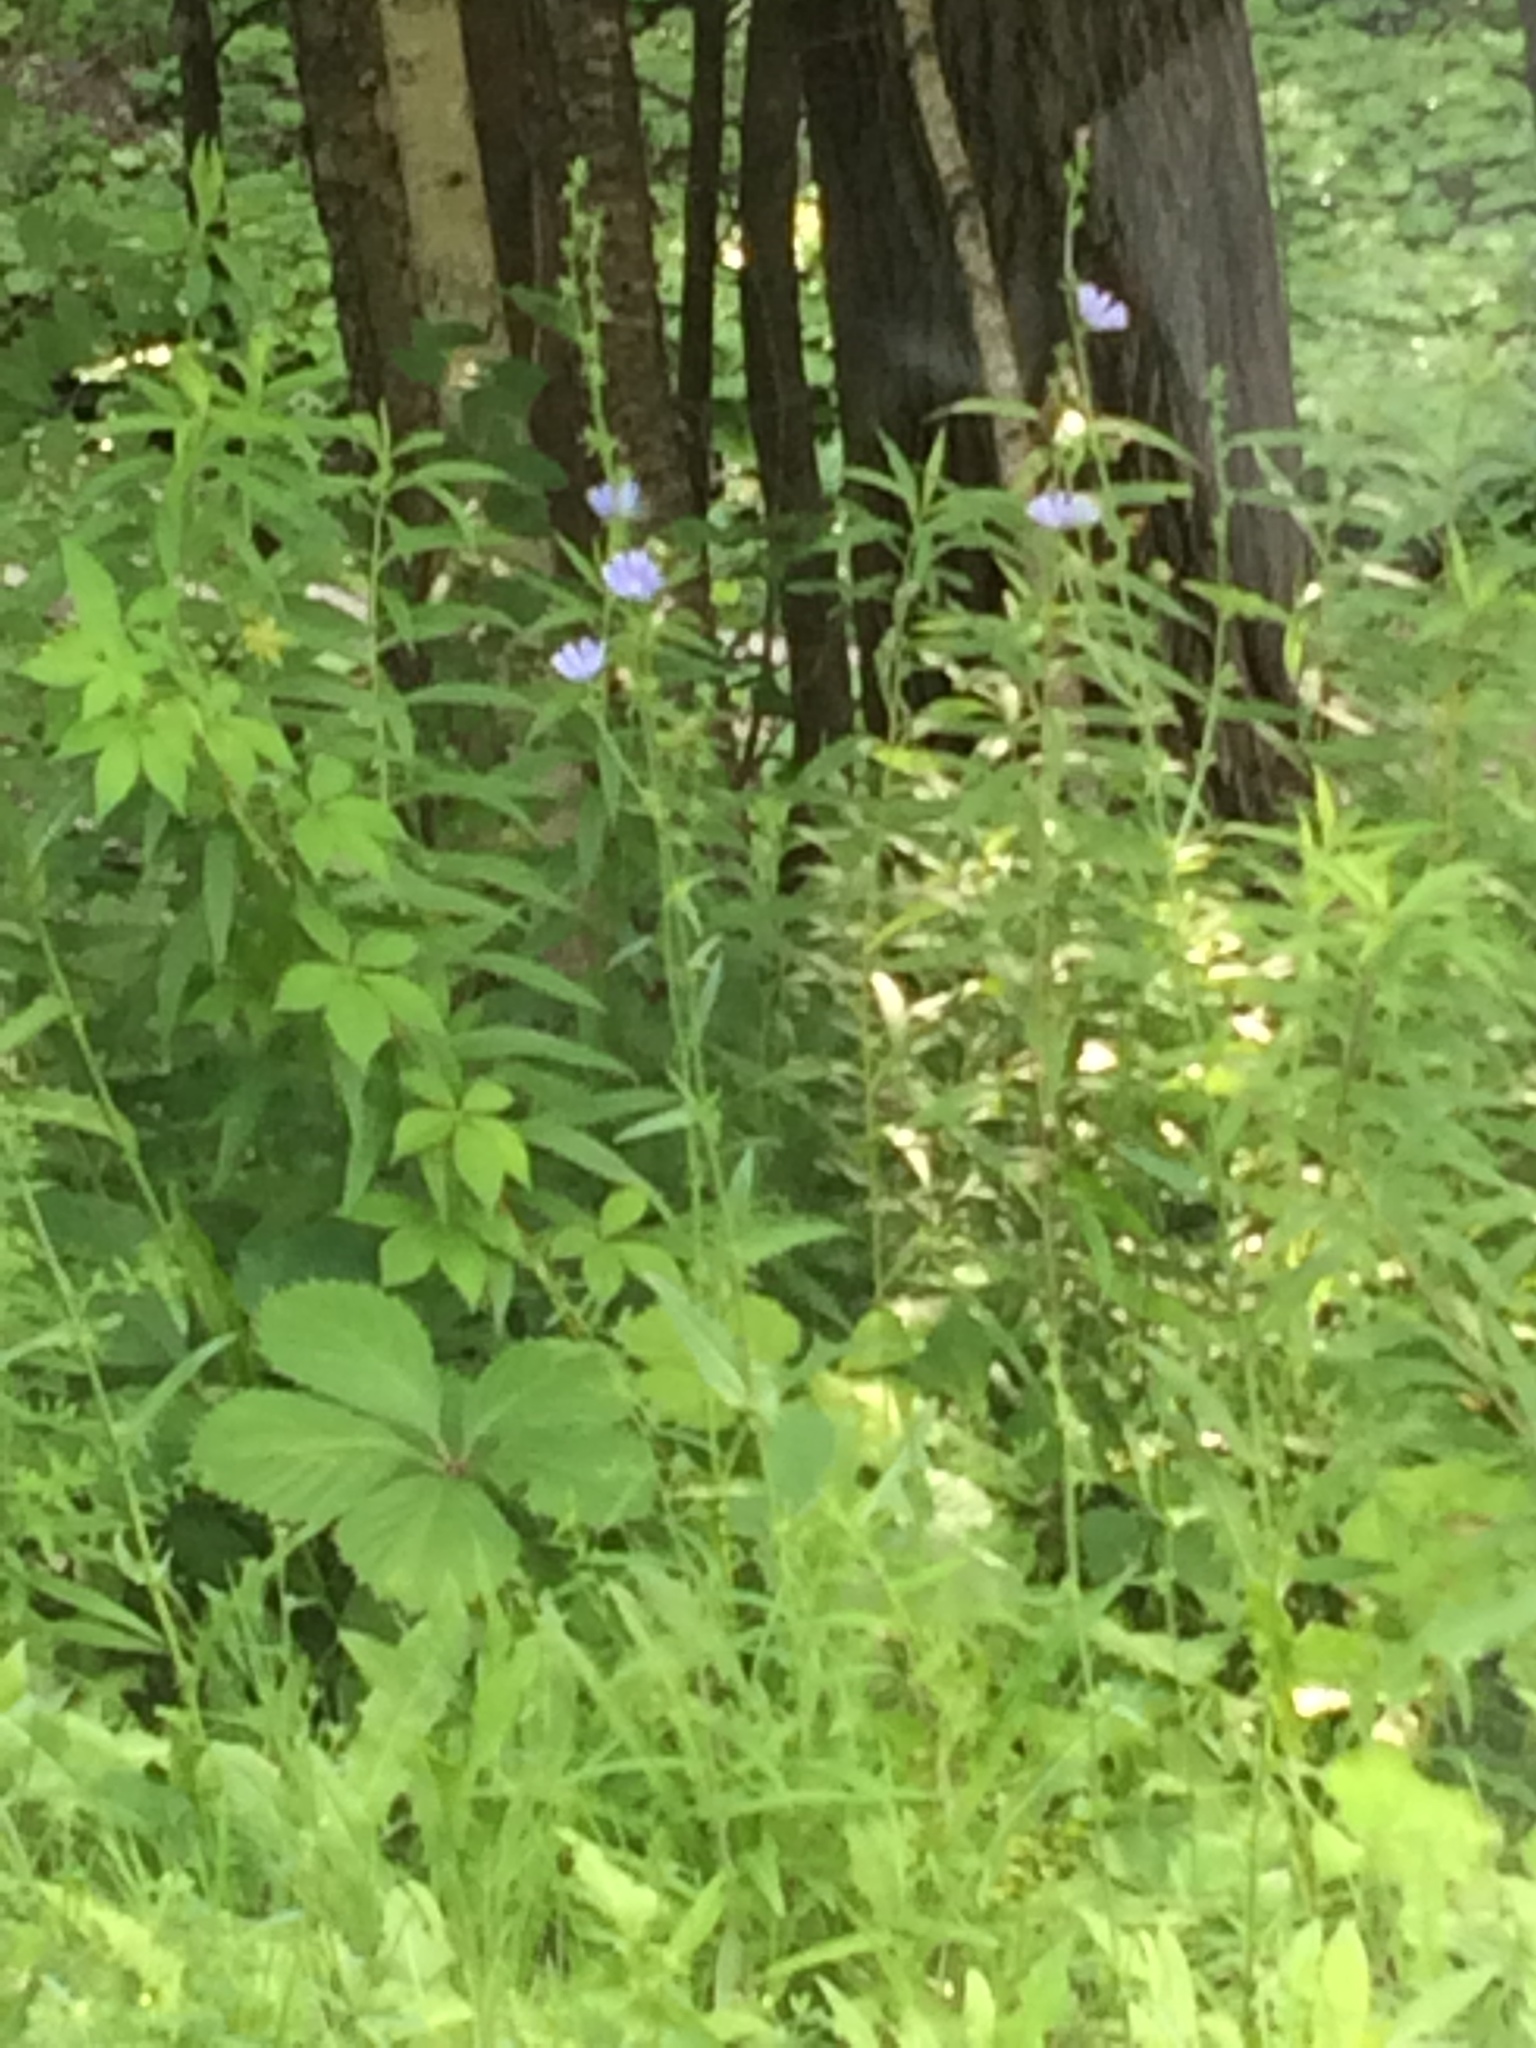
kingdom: Plantae
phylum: Tracheophyta
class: Magnoliopsida
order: Asterales
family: Asteraceae
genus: Cichorium
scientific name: Cichorium intybus
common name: Chicory
